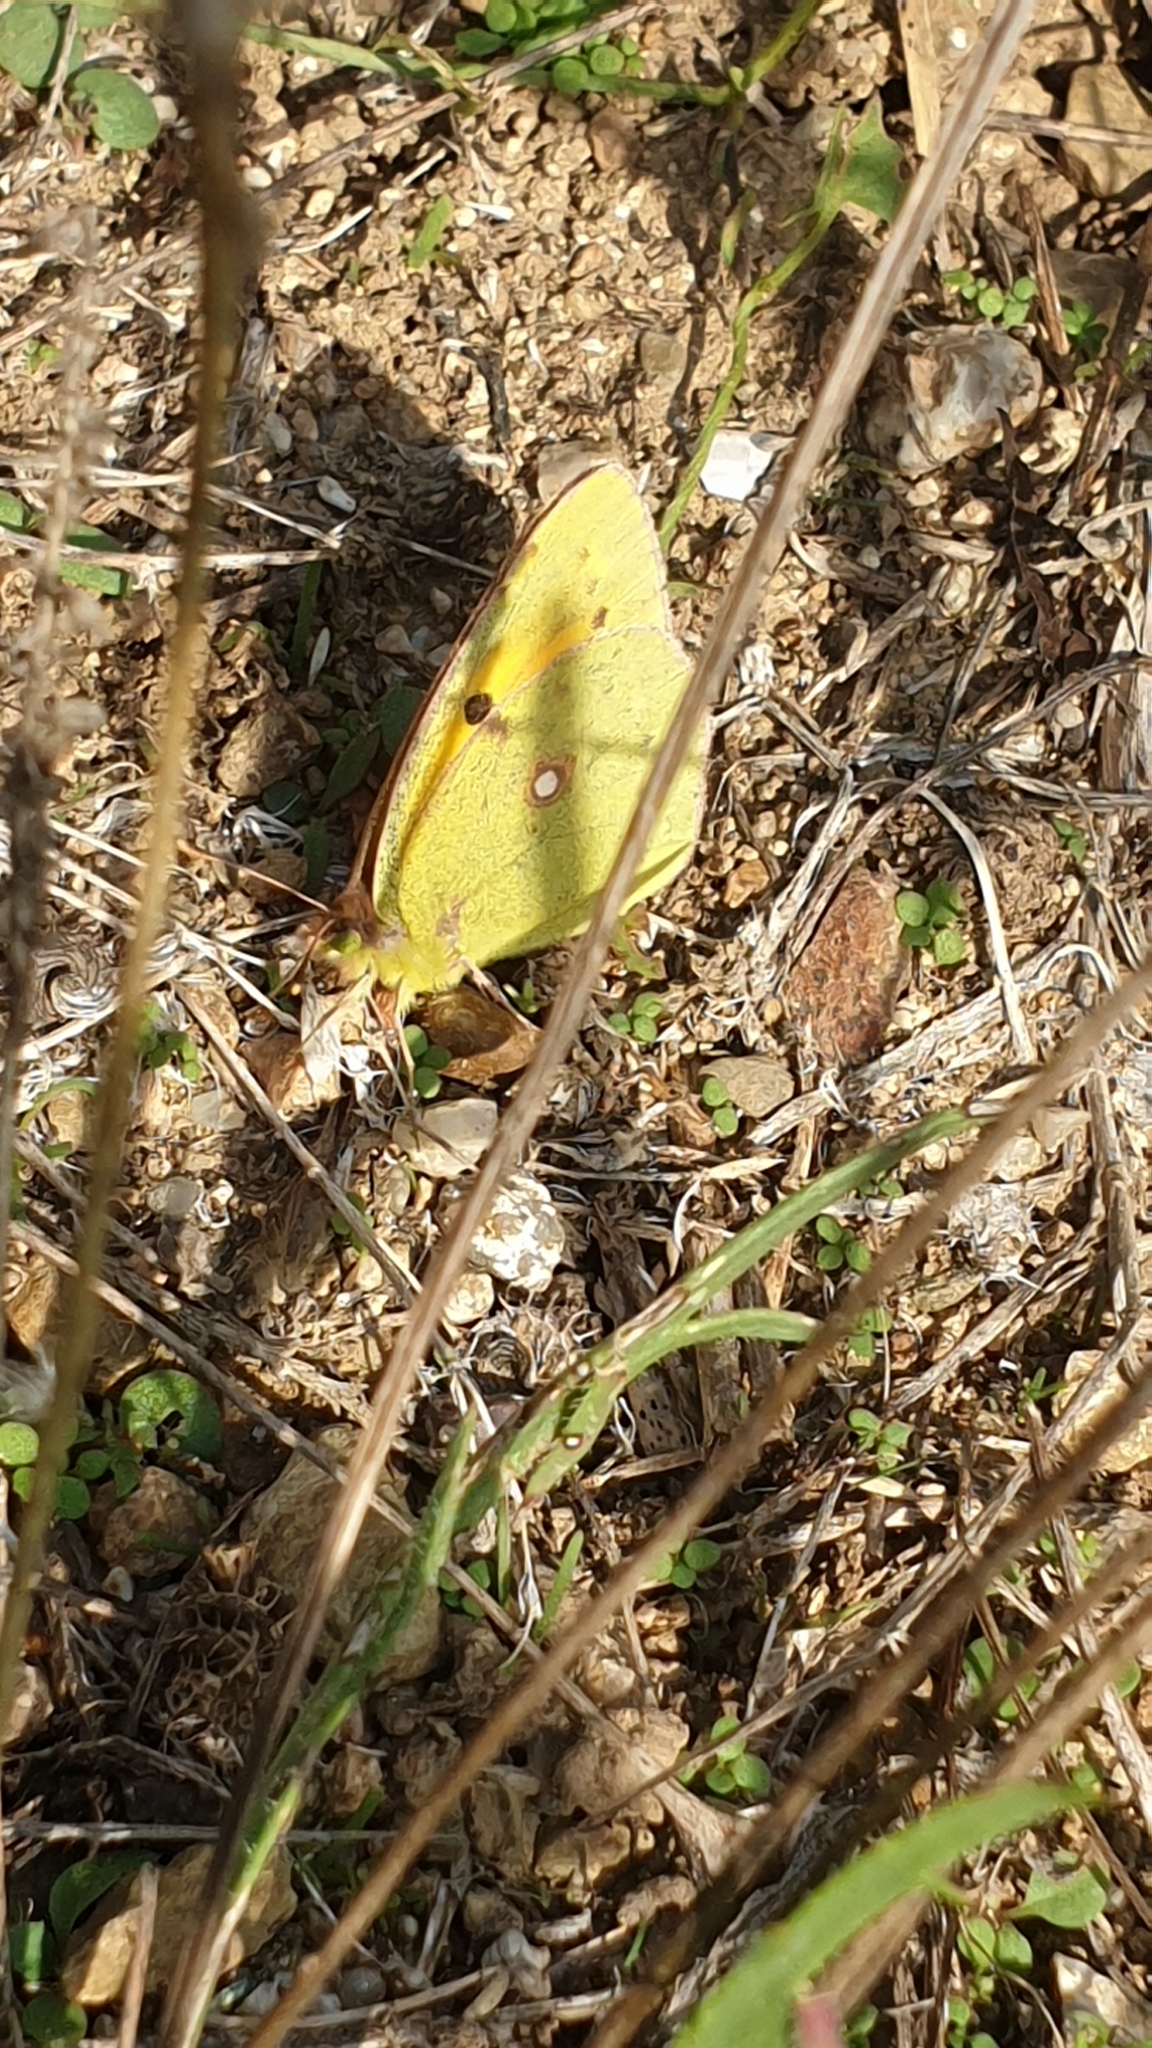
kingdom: Animalia
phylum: Arthropoda
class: Insecta
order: Lepidoptera
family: Pieridae
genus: Colias
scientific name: Colias croceus
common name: Clouded yellow
